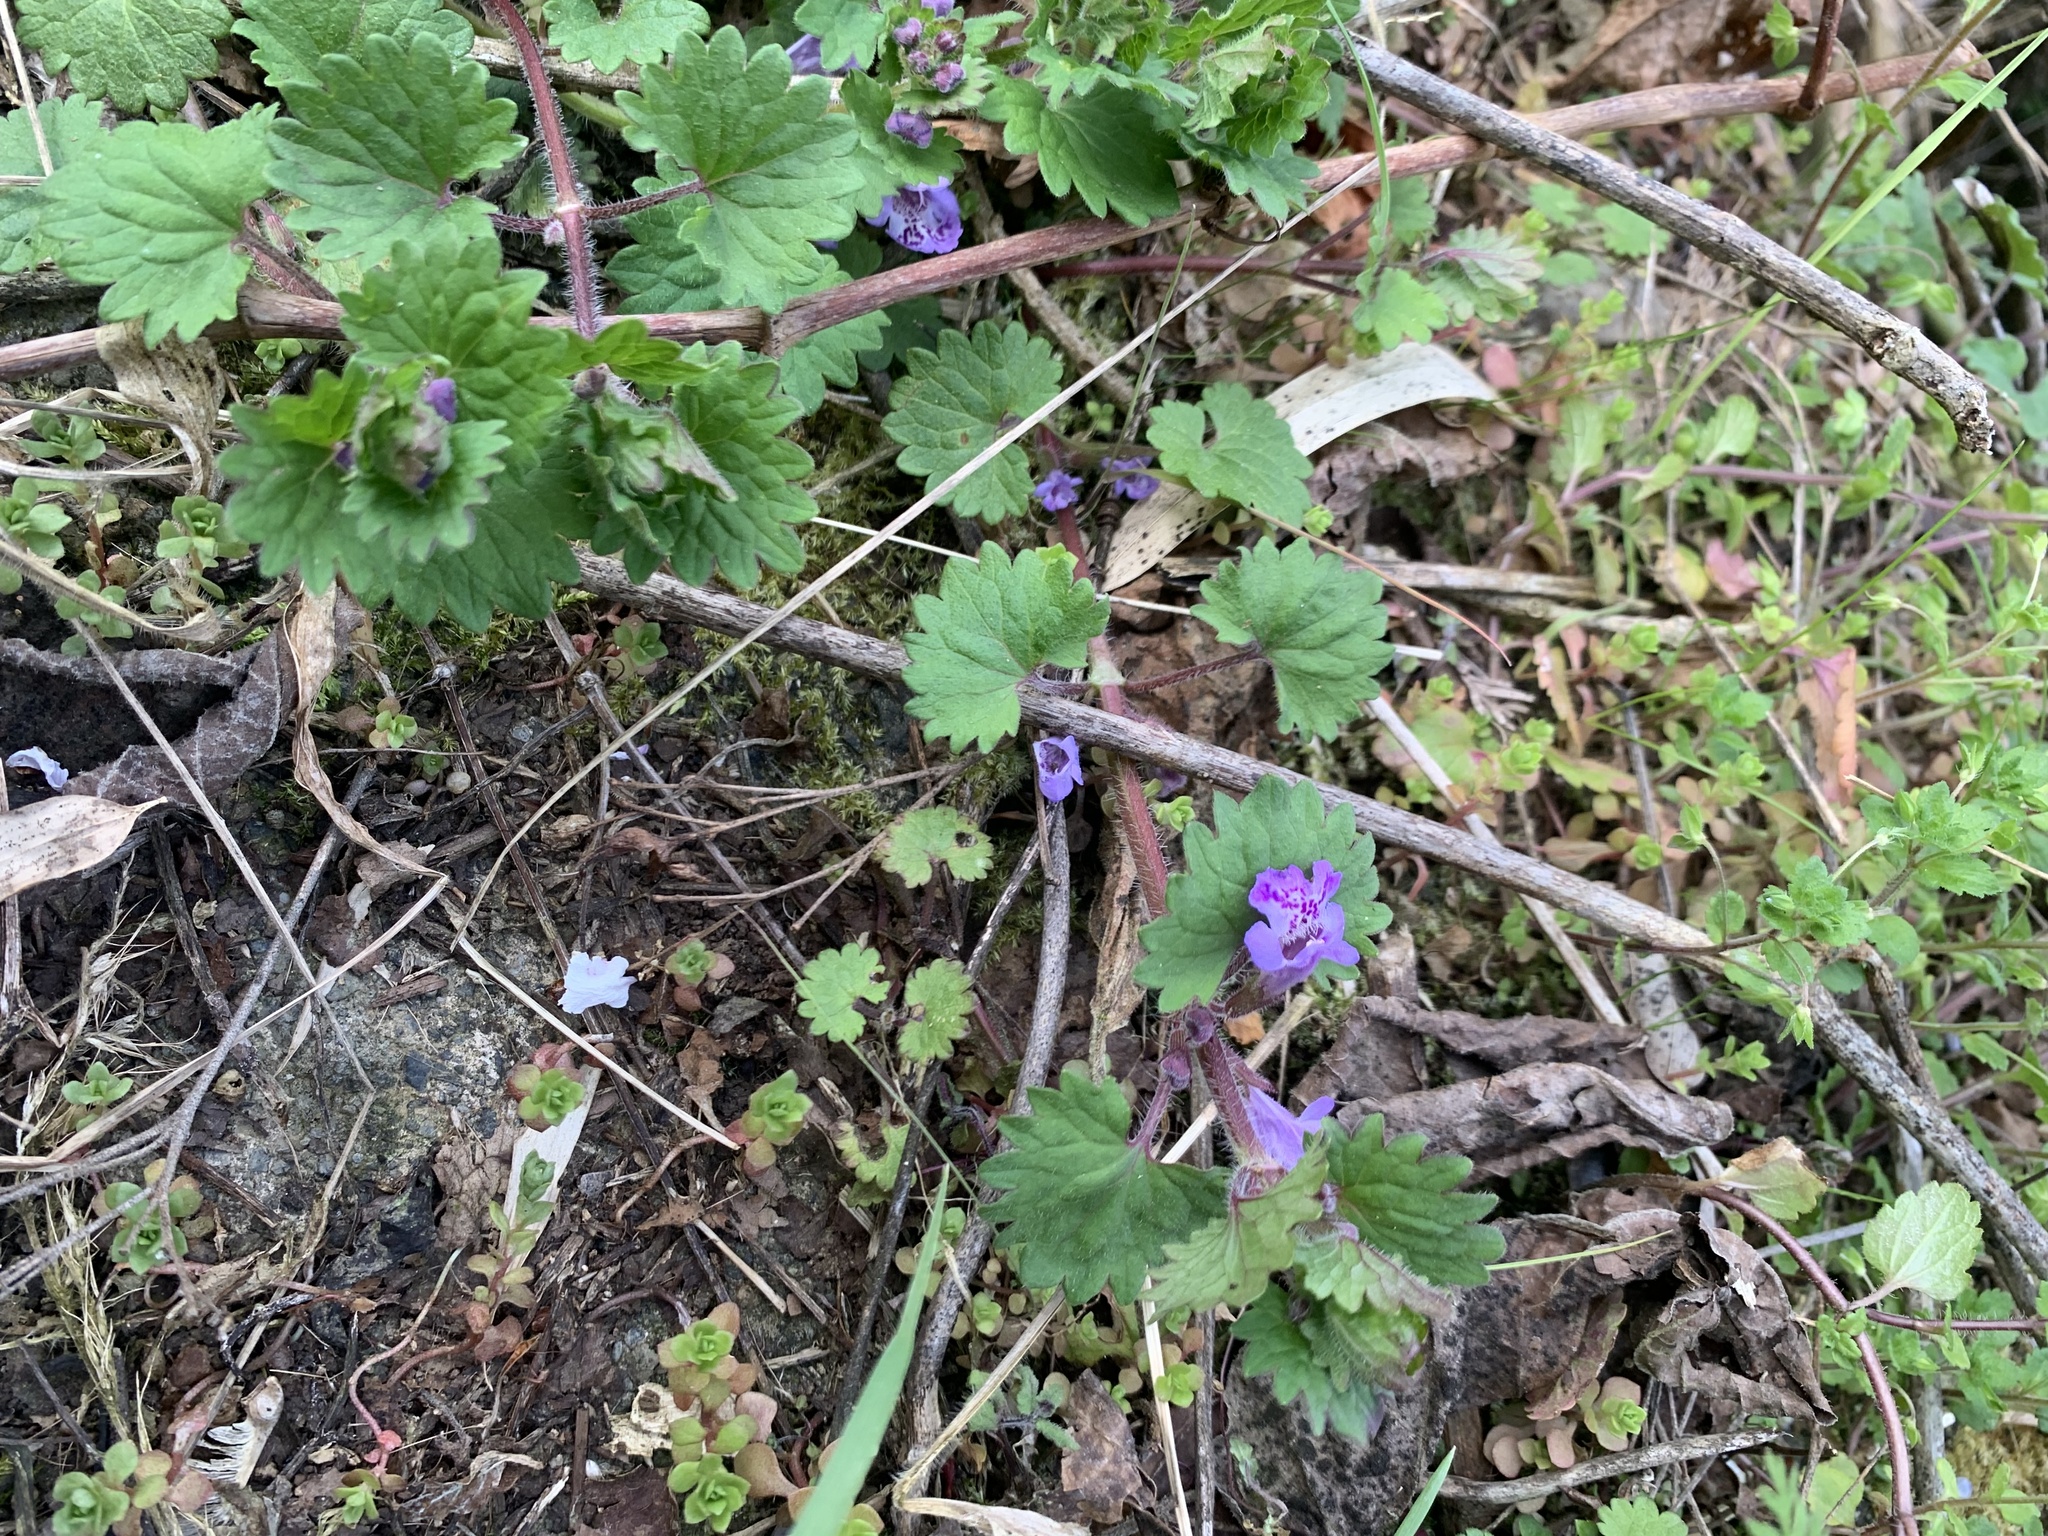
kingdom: Plantae
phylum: Tracheophyta
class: Magnoliopsida
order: Lamiales
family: Lamiaceae
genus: Glechoma
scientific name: Glechoma grandis
